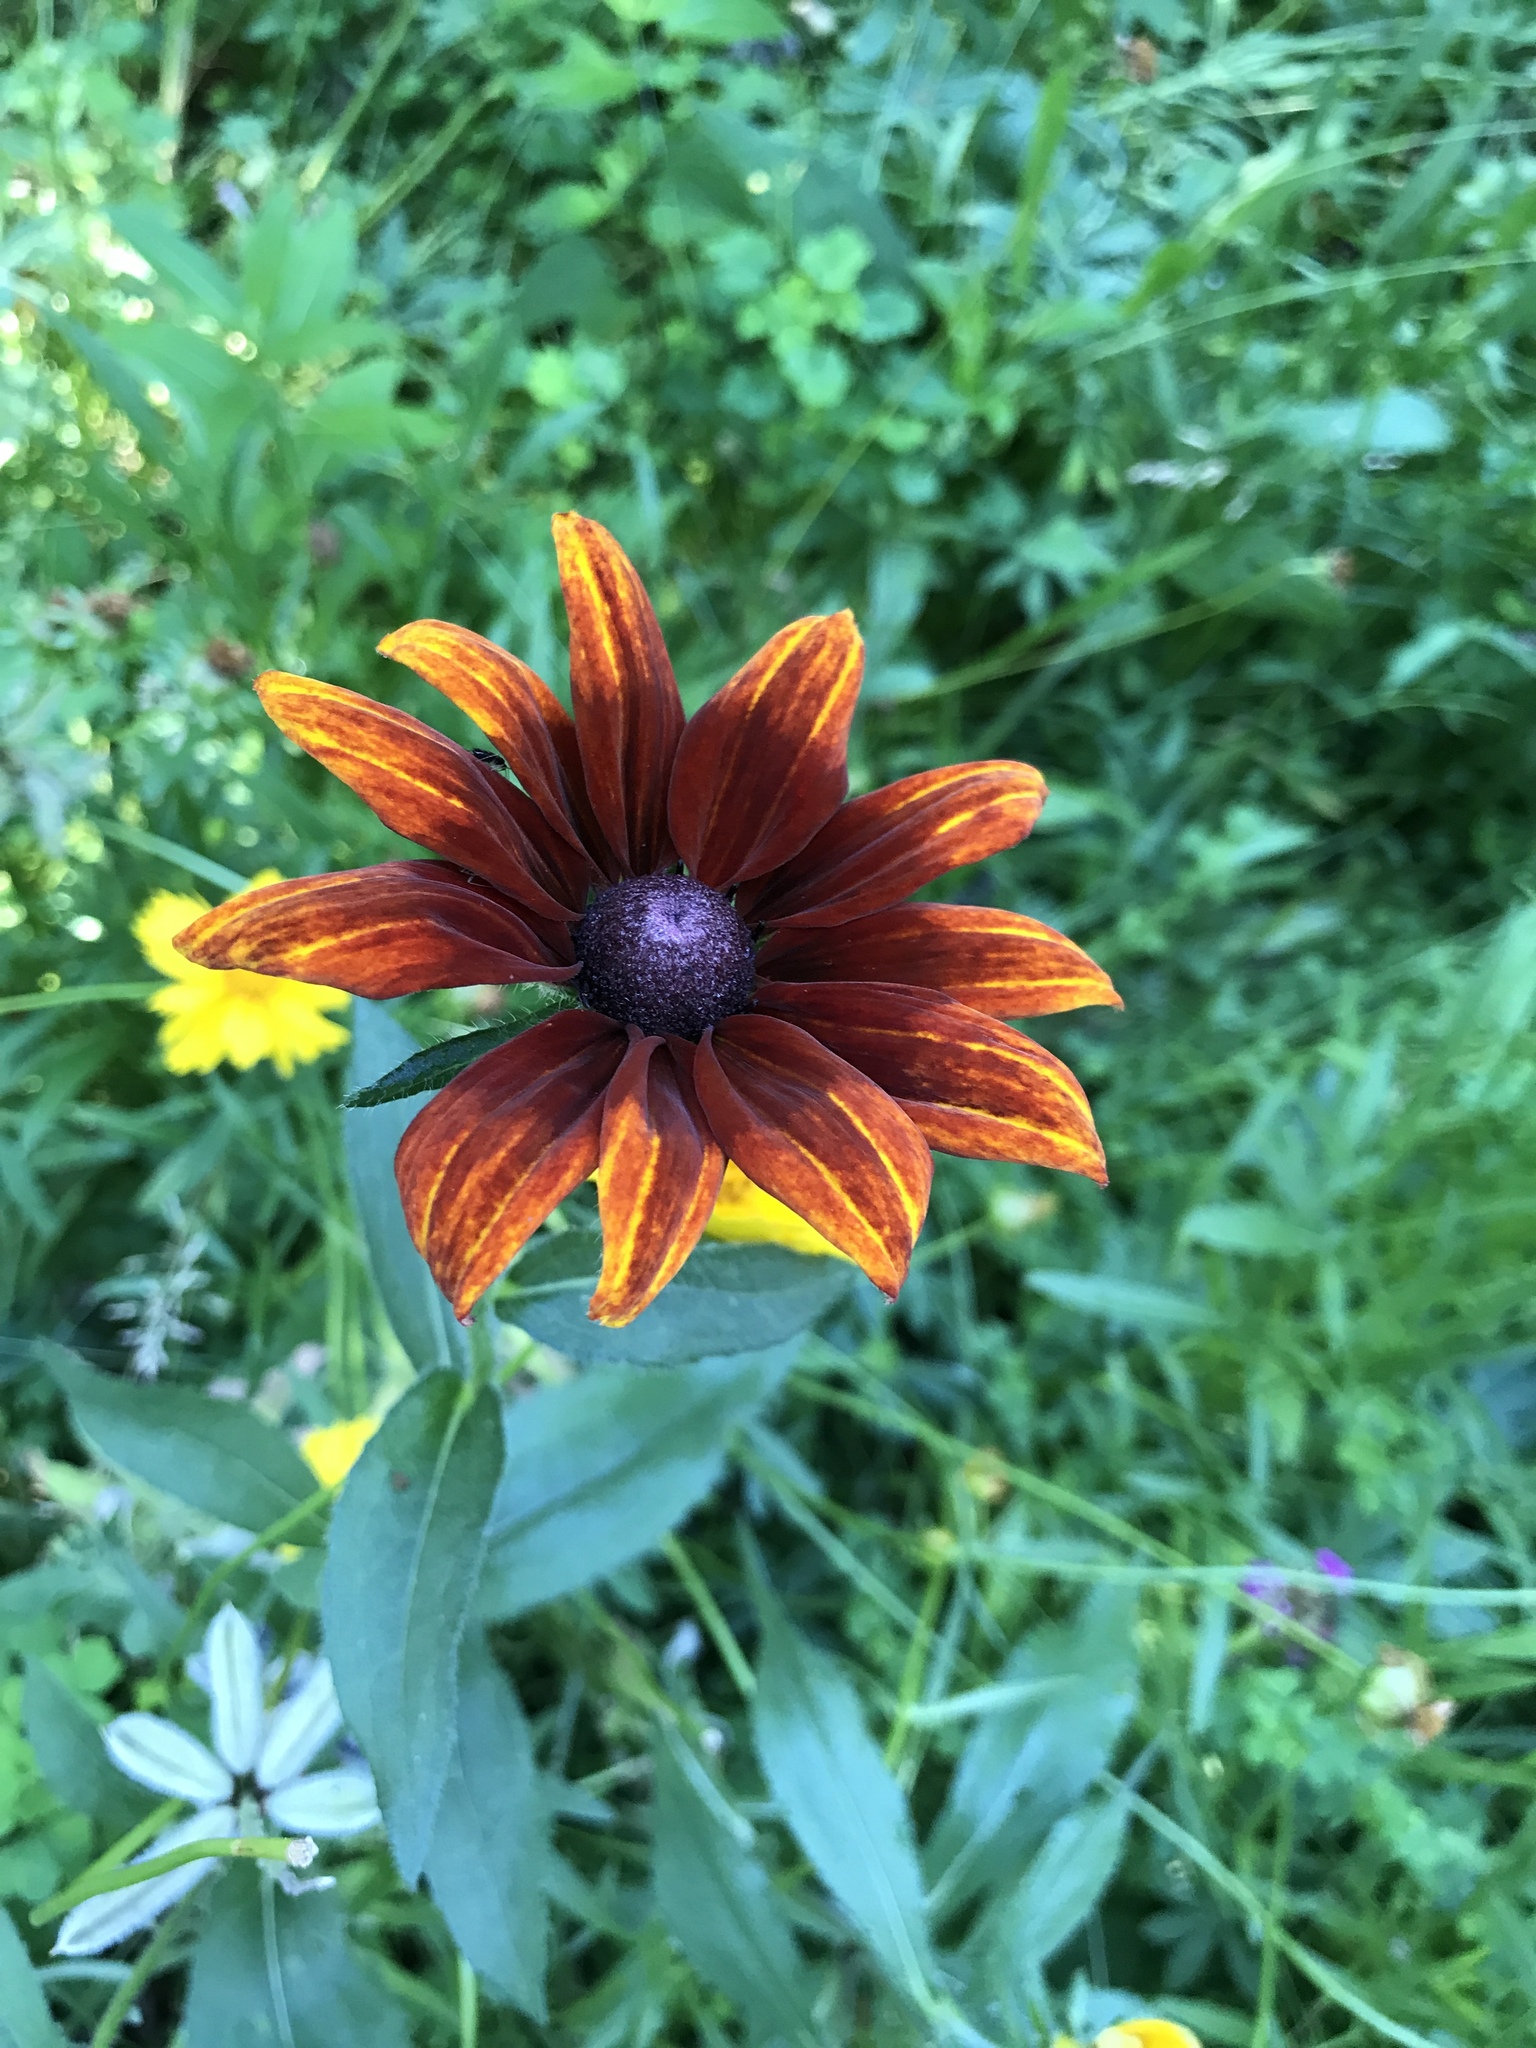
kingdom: Plantae
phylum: Tracheophyta
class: Magnoliopsida
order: Asterales
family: Asteraceae
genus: Rudbeckia
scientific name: Rudbeckia hirta
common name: Black-eyed-susan
